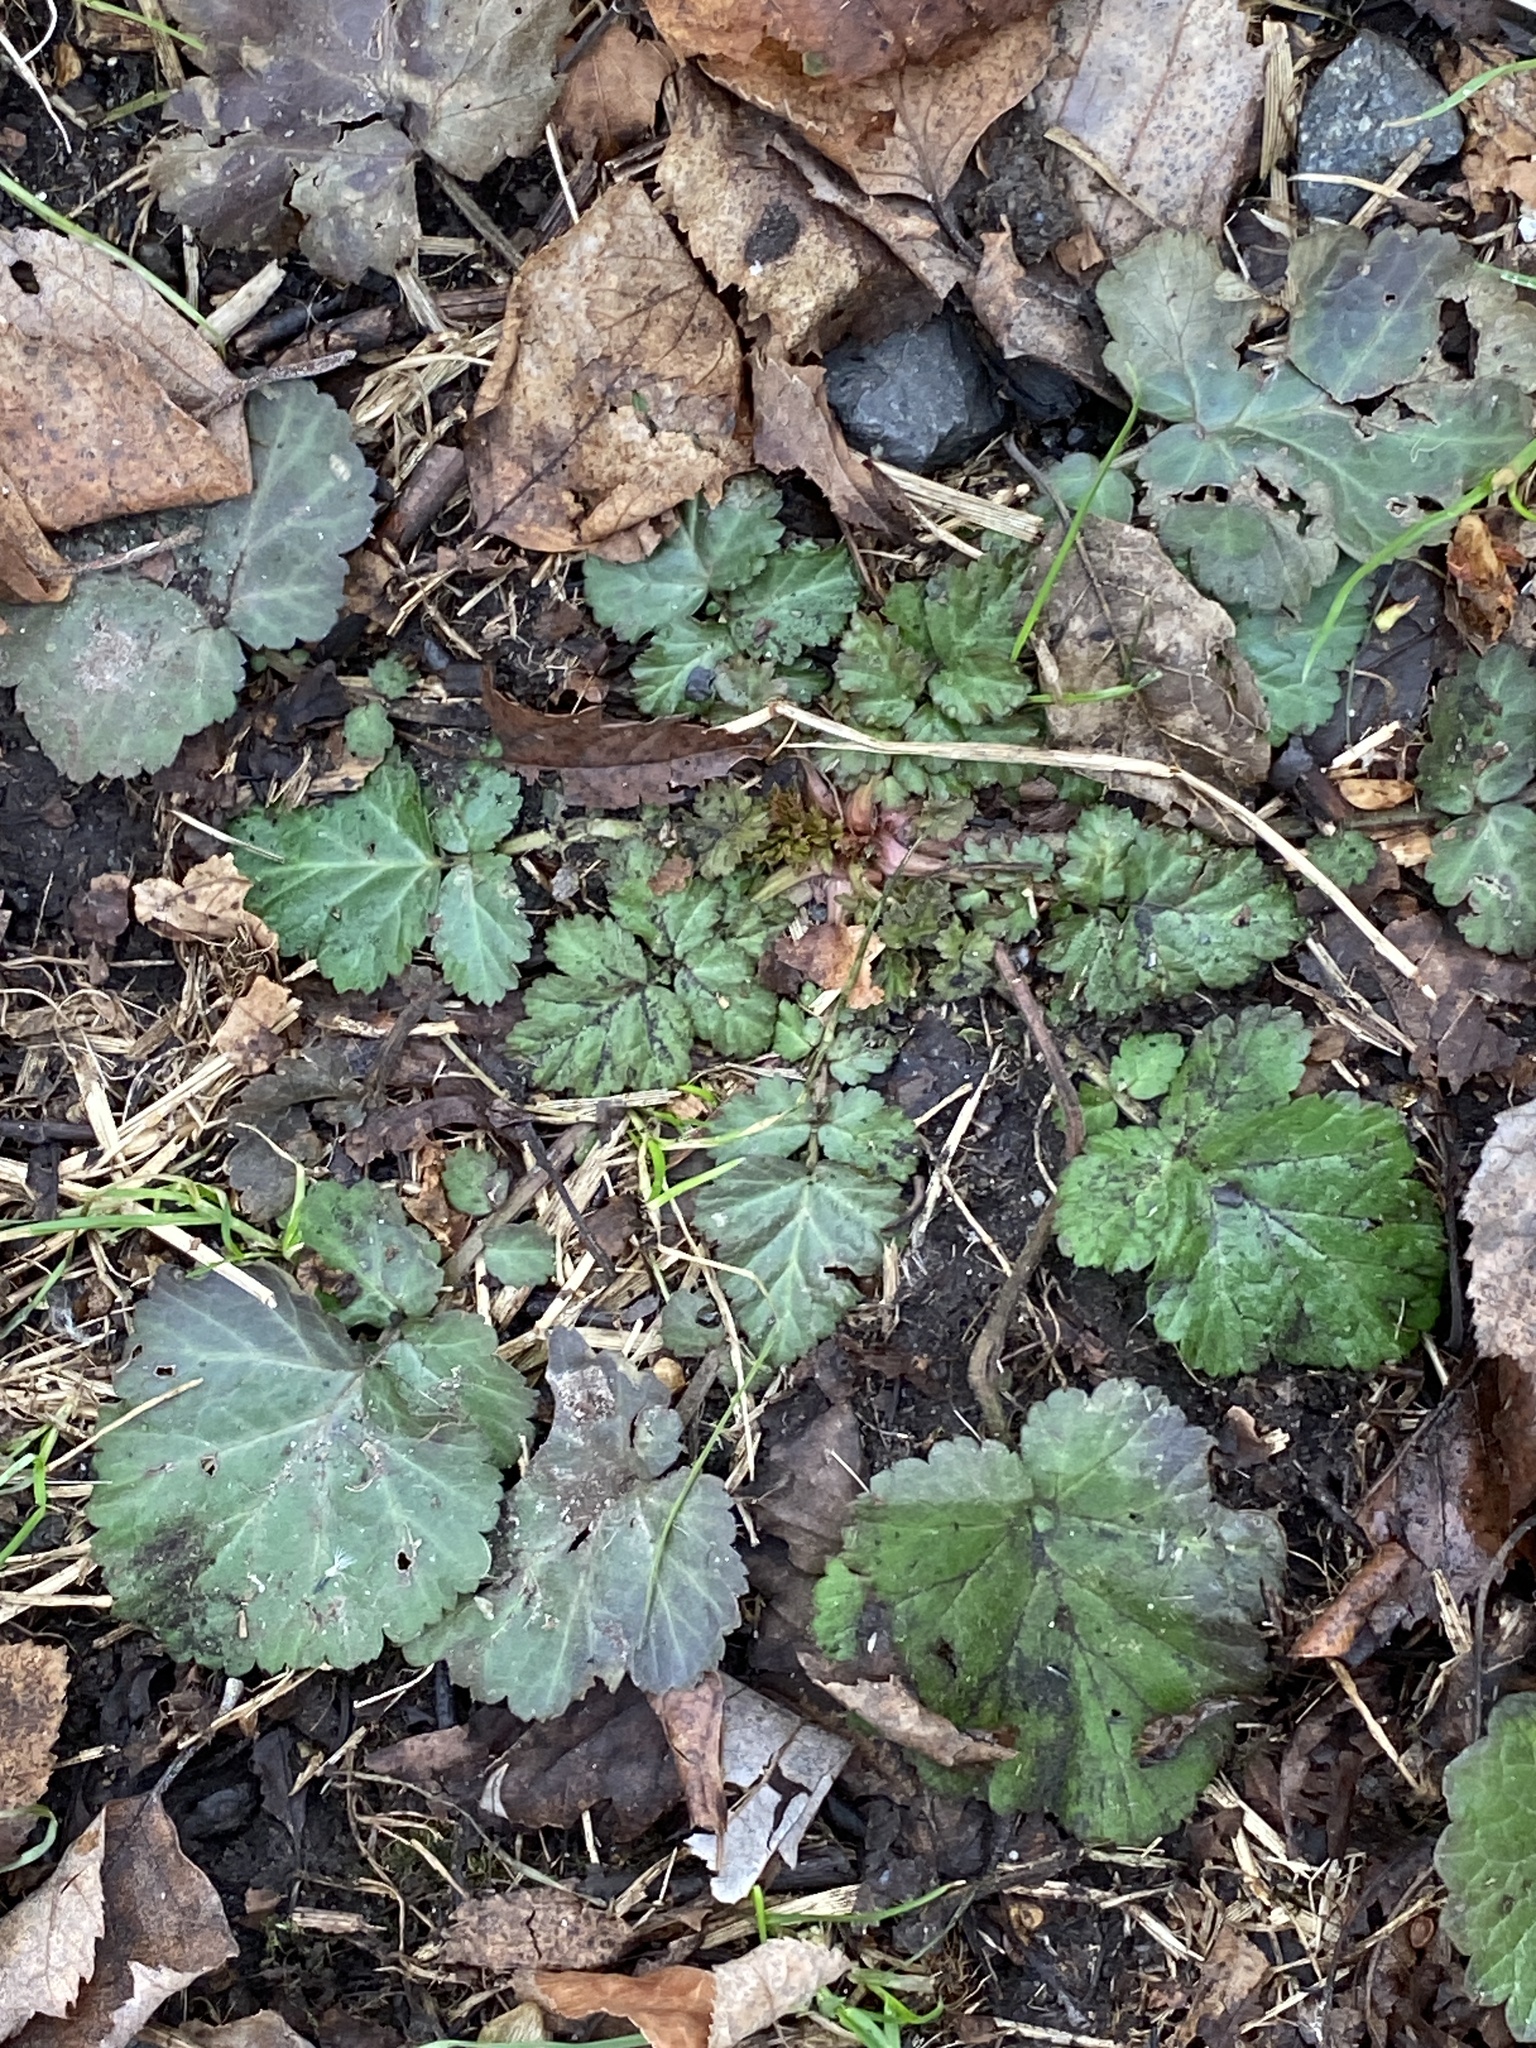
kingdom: Plantae
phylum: Tracheophyta
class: Magnoliopsida
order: Rosales
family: Rosaceae
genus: Geum
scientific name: Geum canadense
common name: White avens
